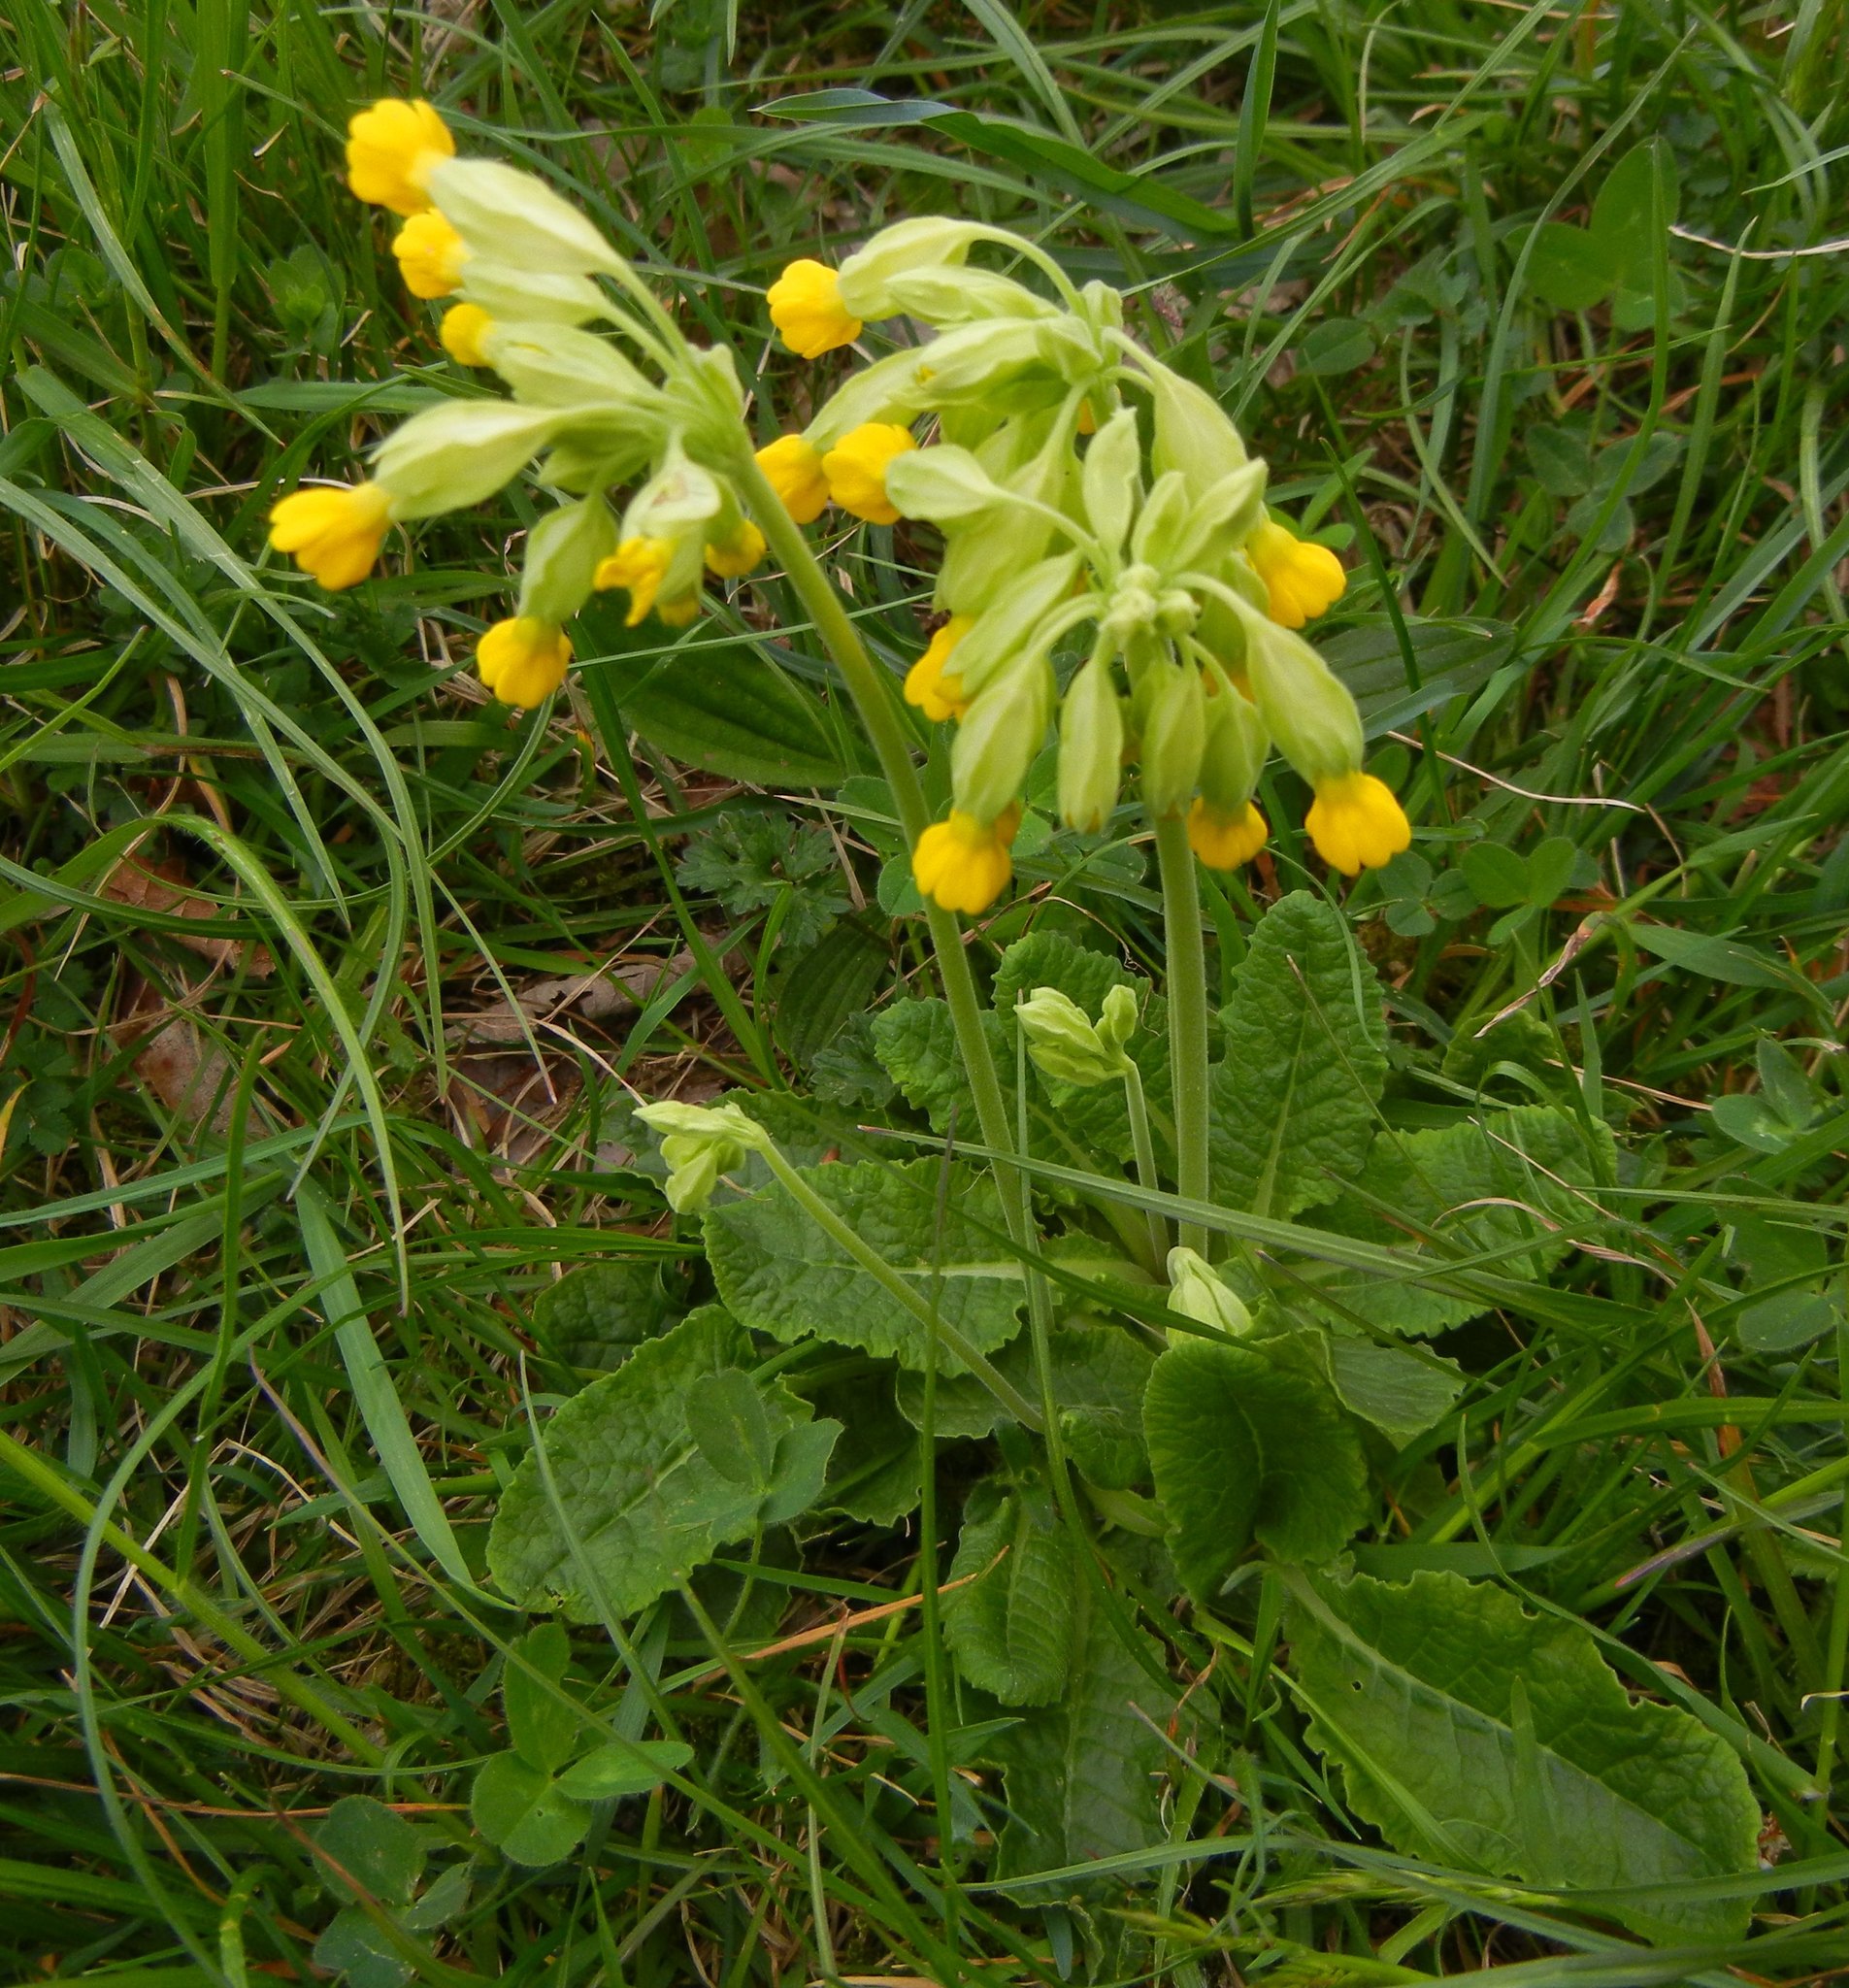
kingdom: Plantae
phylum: Tracheophyta
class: Magnoliopsida
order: Ericales
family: Primulaceae
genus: Primula
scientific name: Primula veris
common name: Cowslip
